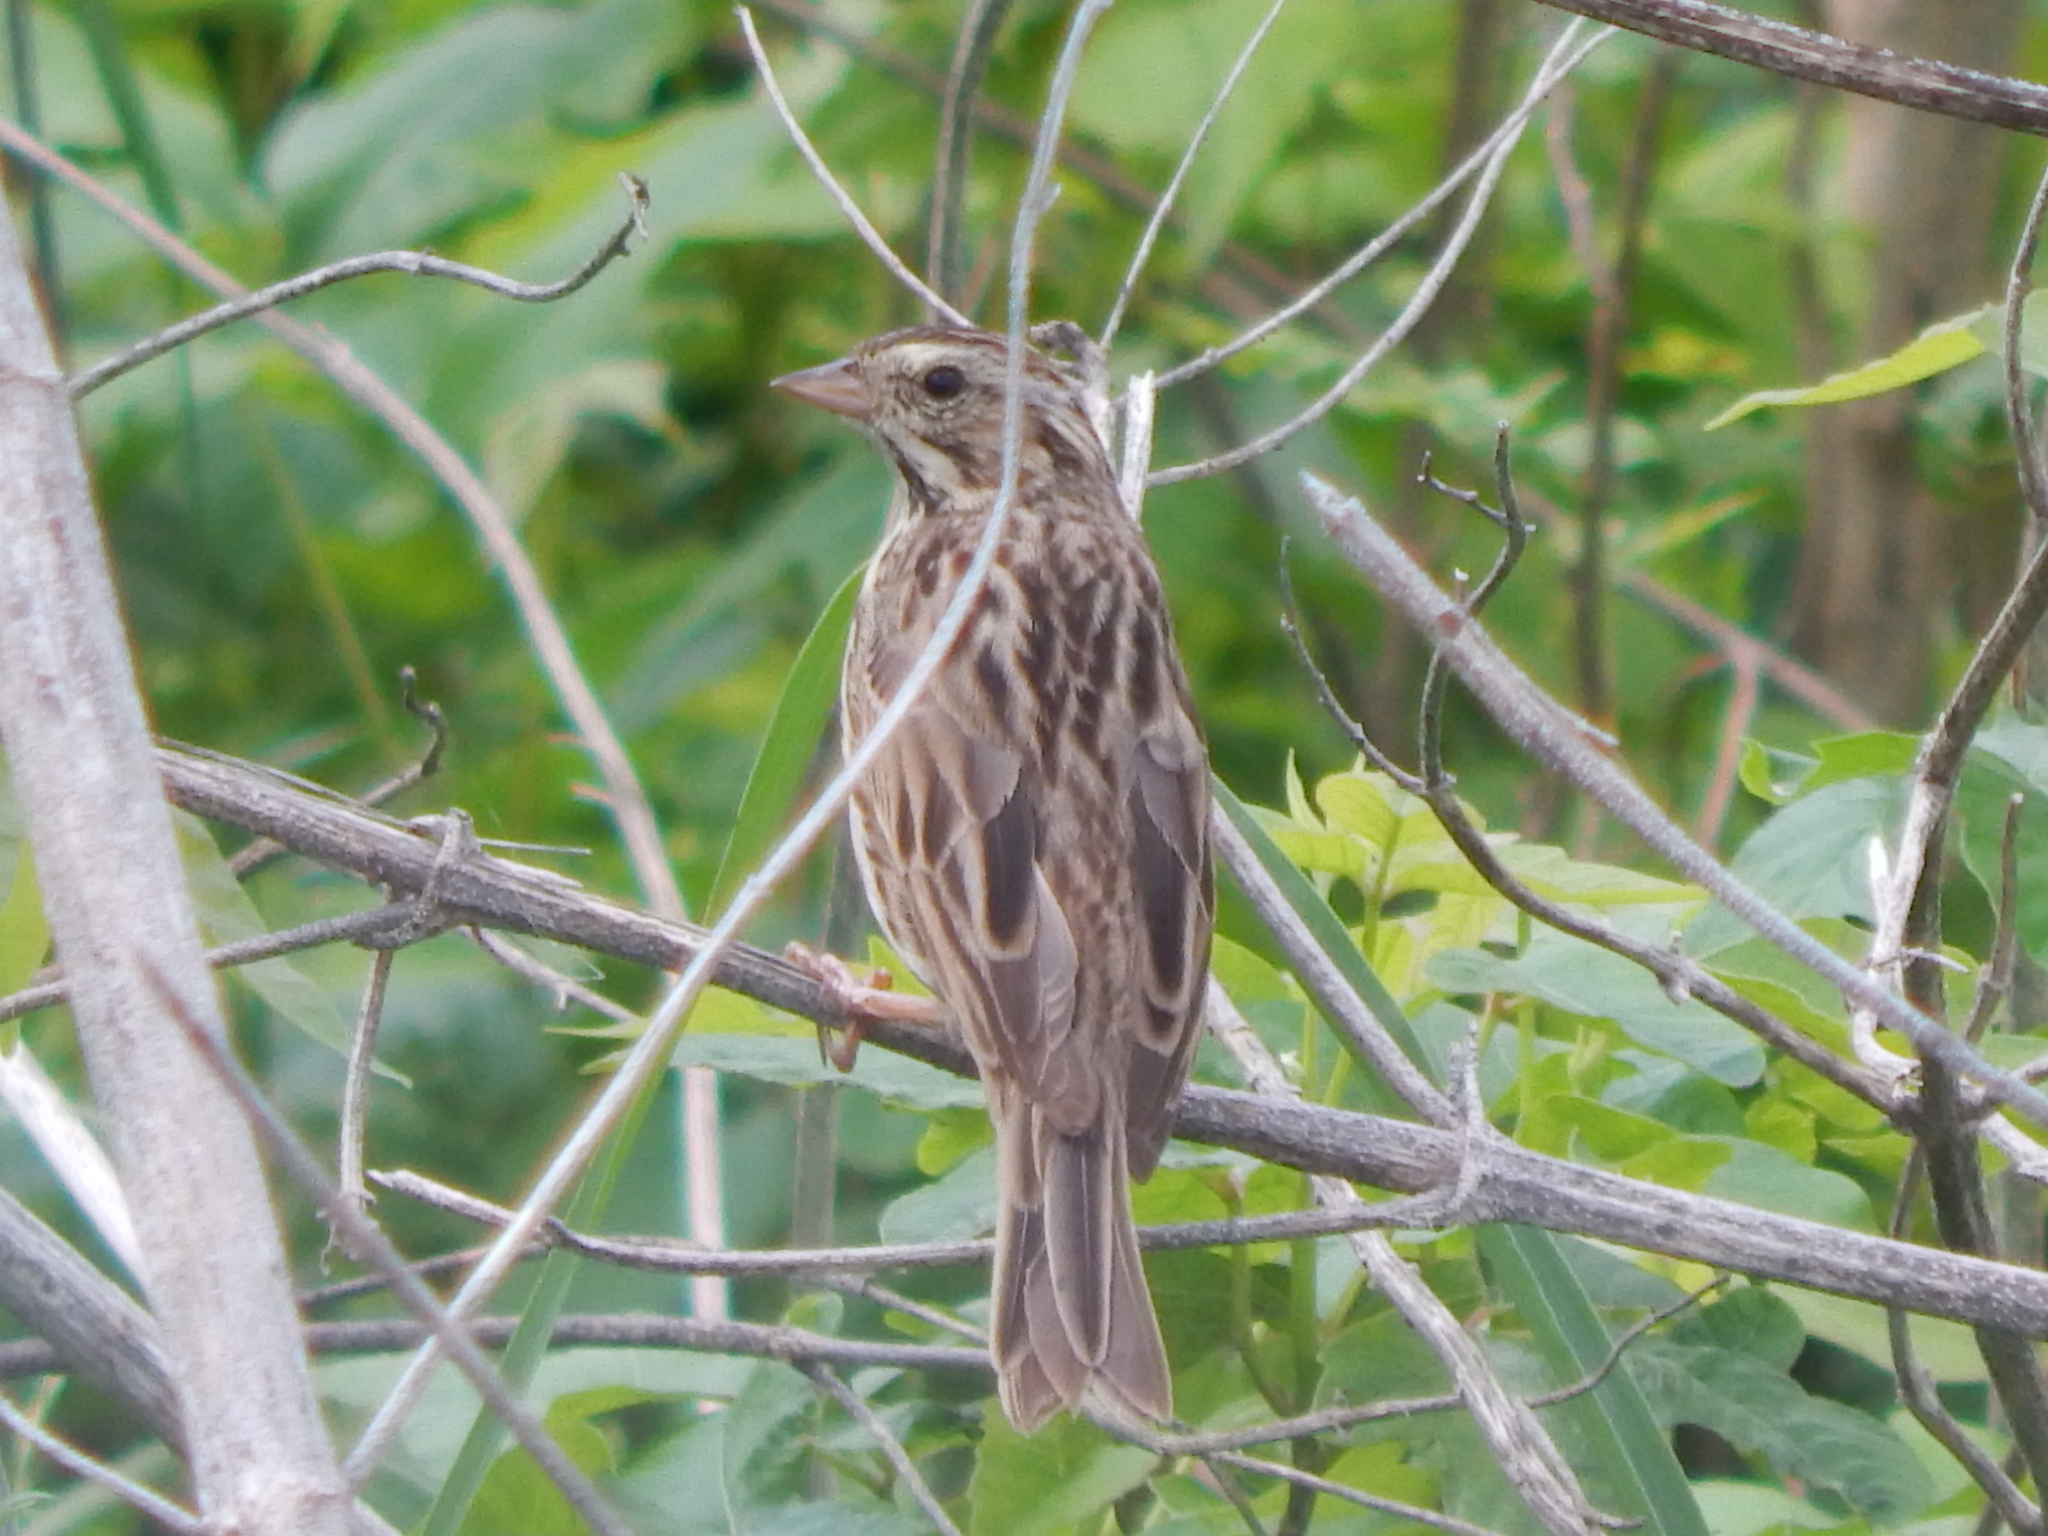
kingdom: Animalia
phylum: Chordata
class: Aves
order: Passeriformes
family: Passerellidae
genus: Passerculus
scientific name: Passerculus sandwichensis
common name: Savannah sparrow
